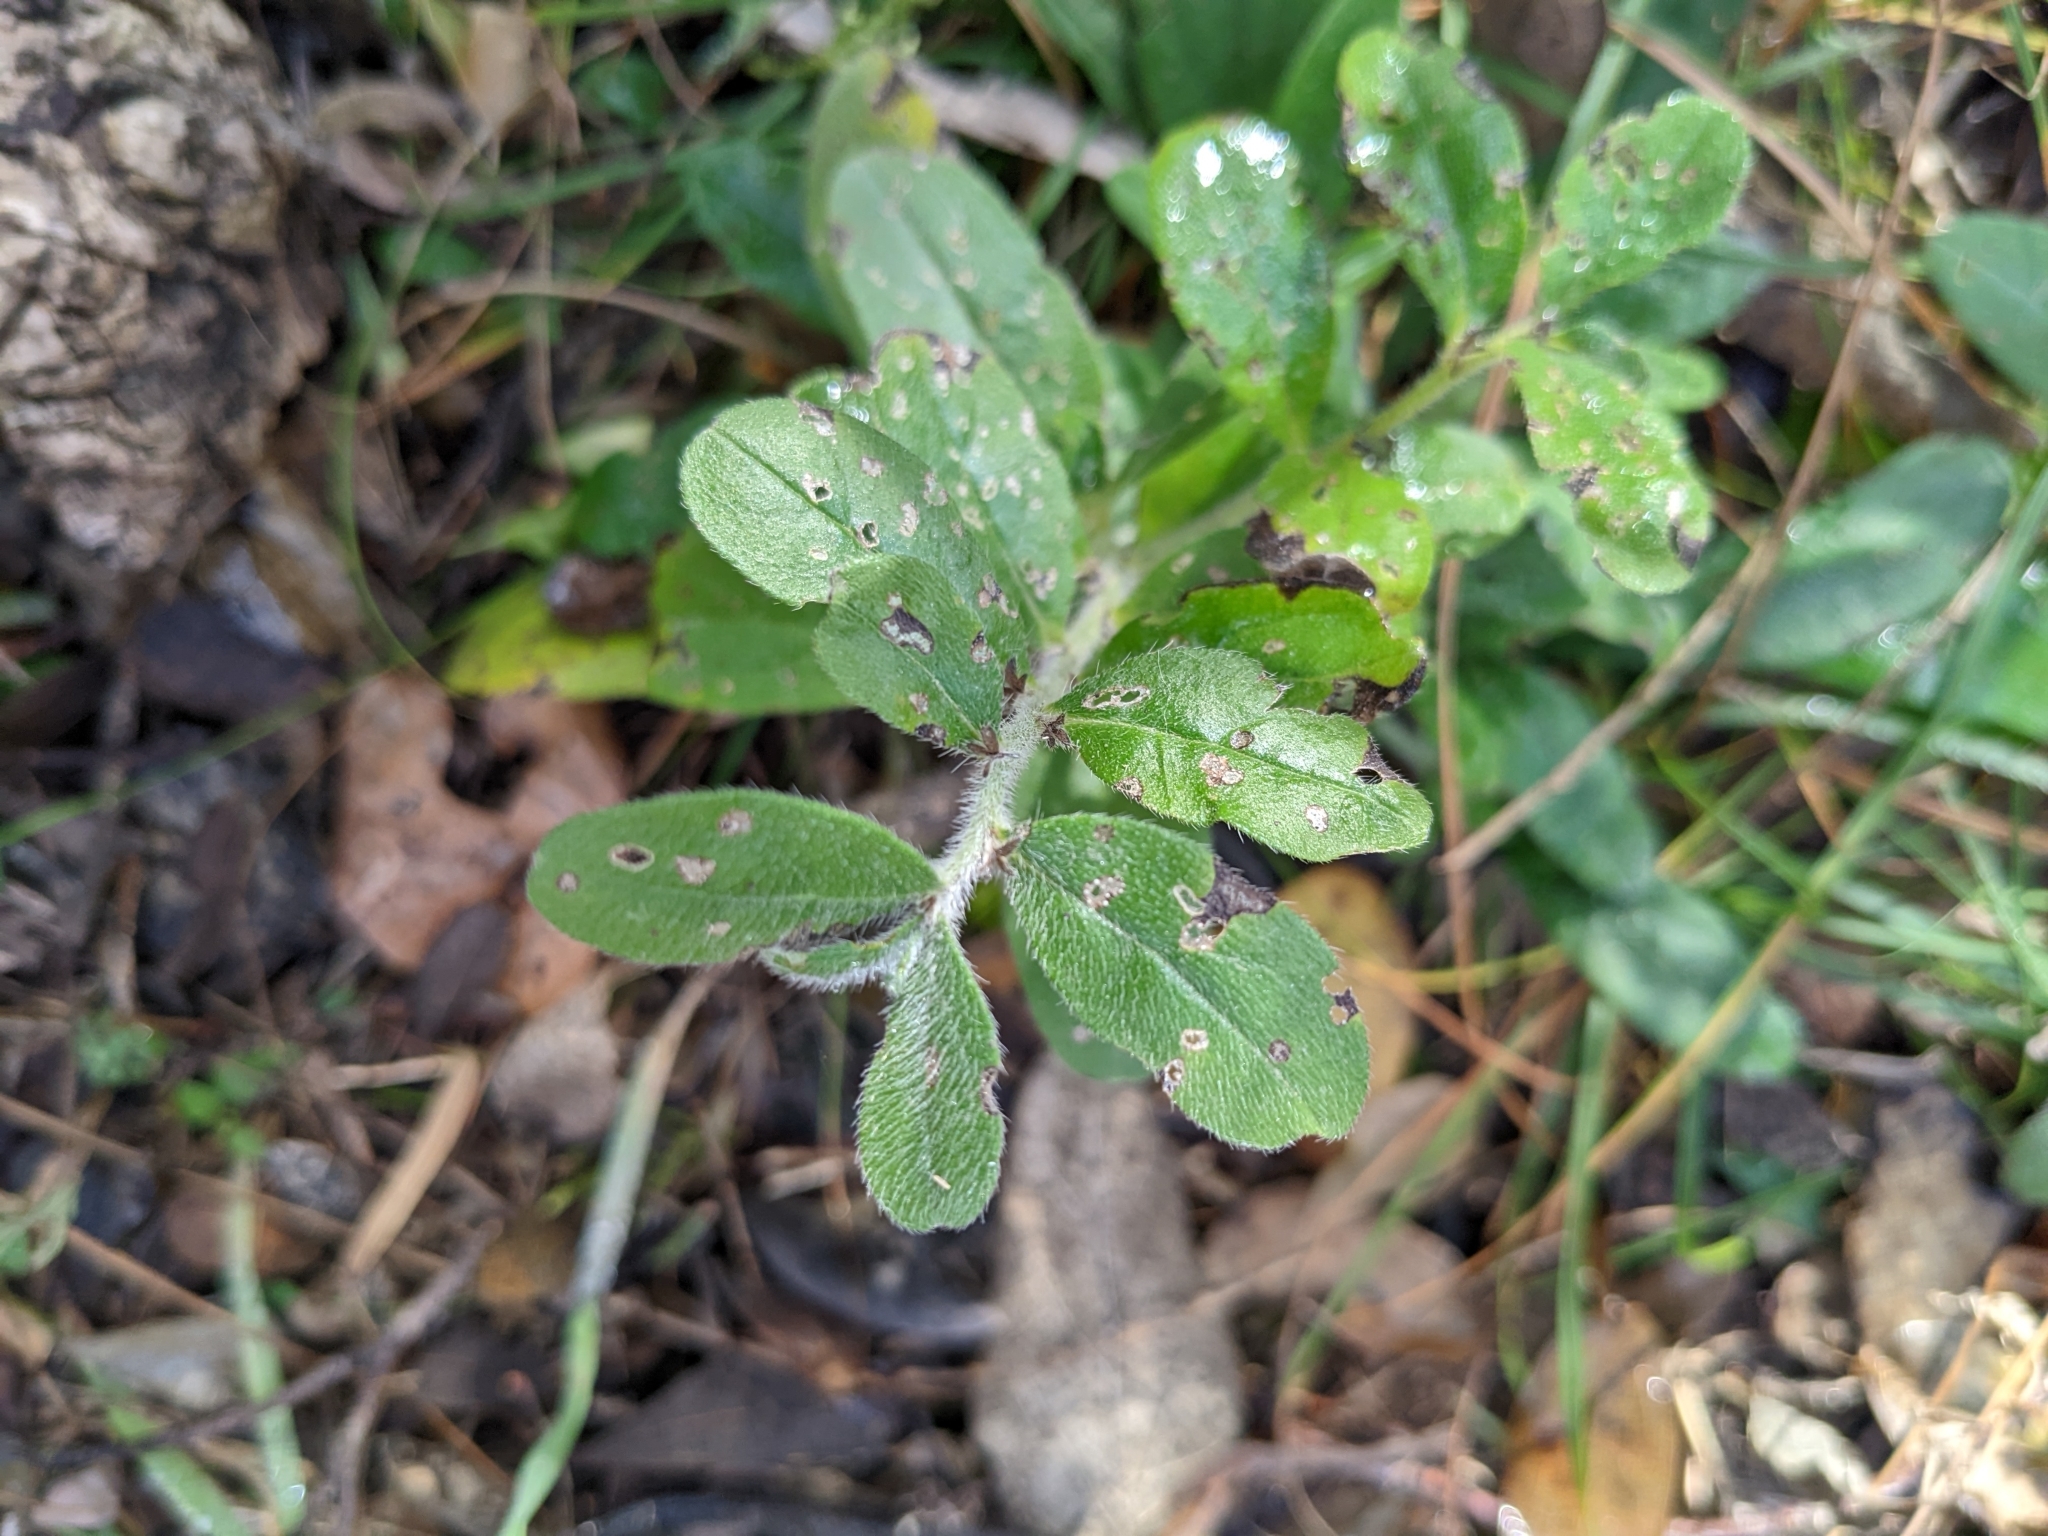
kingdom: Plantae
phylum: Tracheophyta
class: Magnoliopsida
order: Boraginales
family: Boraginaceae
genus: Lithospermum
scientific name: Lithospermum matamorense
